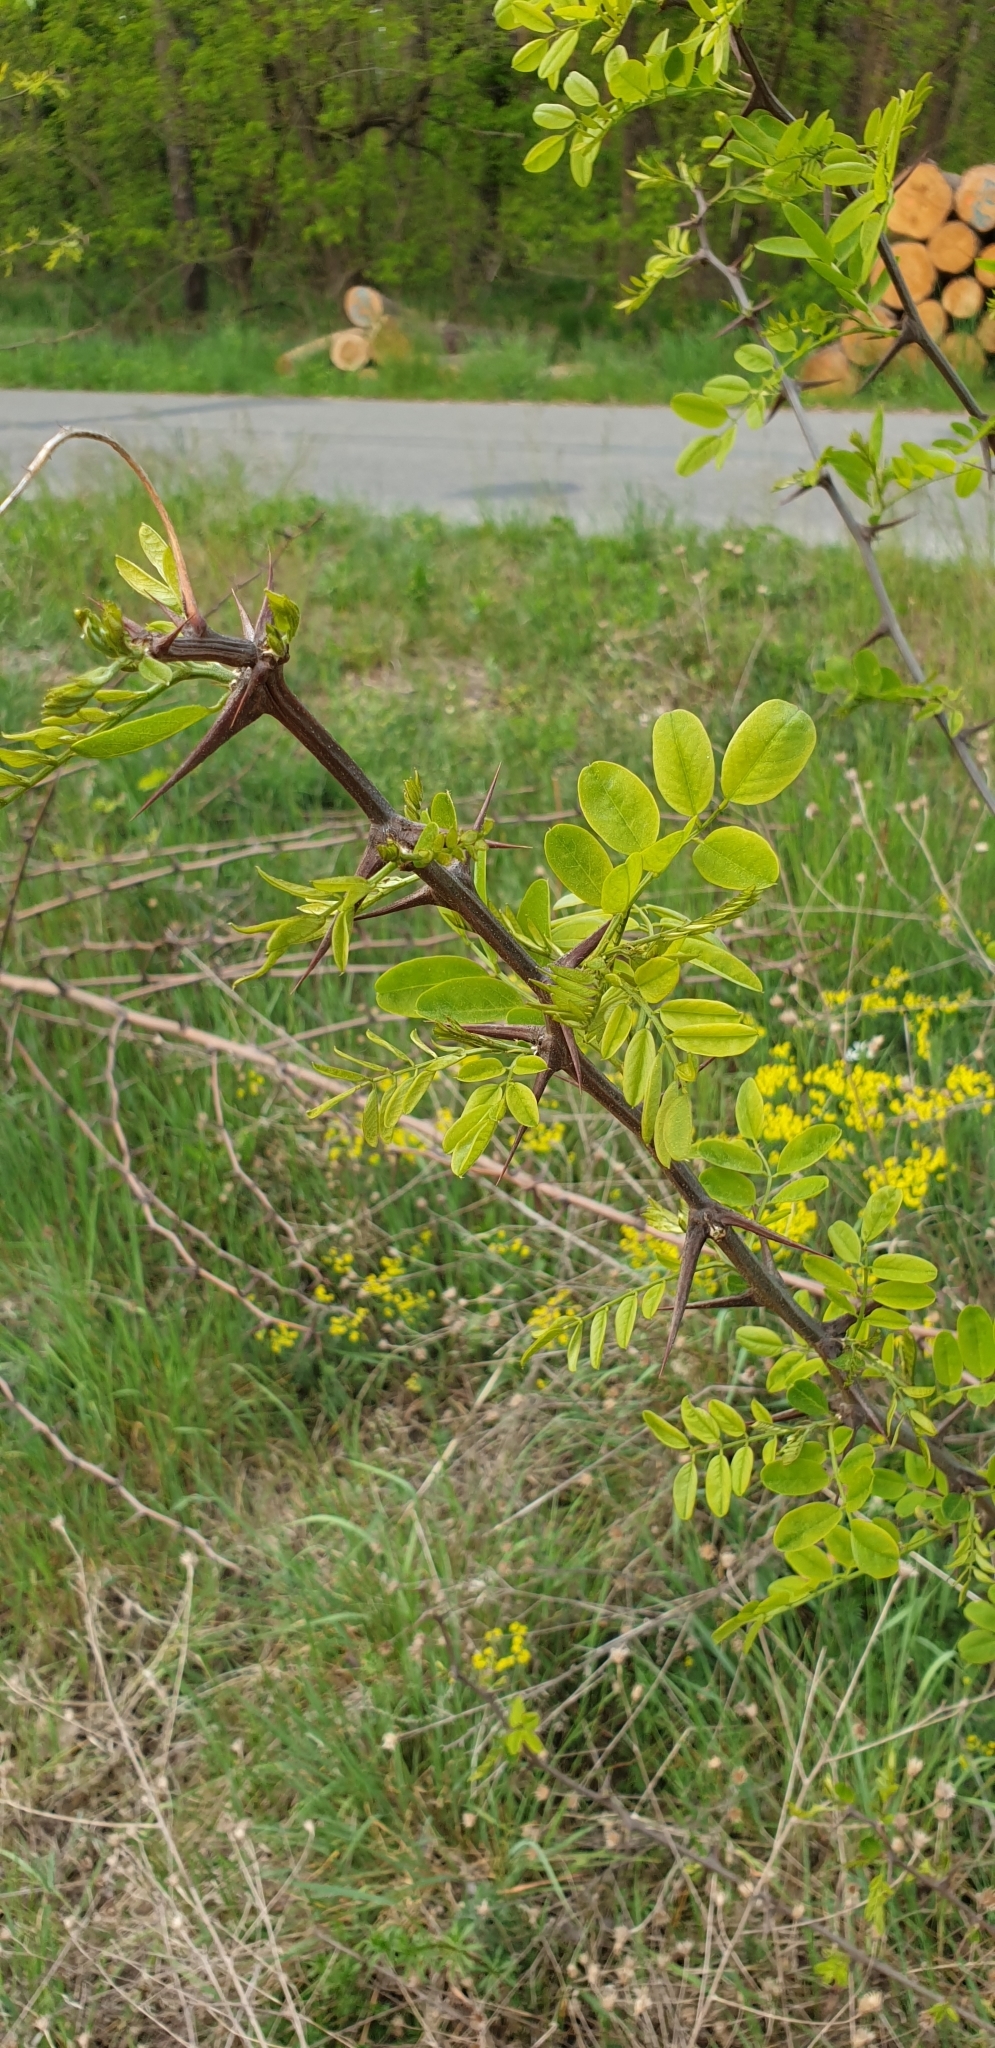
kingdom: Plantae
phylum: Tracheophyta
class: Magnoliopsida
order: Fabales
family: Fabaceae
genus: Robinia
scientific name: Robinia pseudoacacia
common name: Black locust
